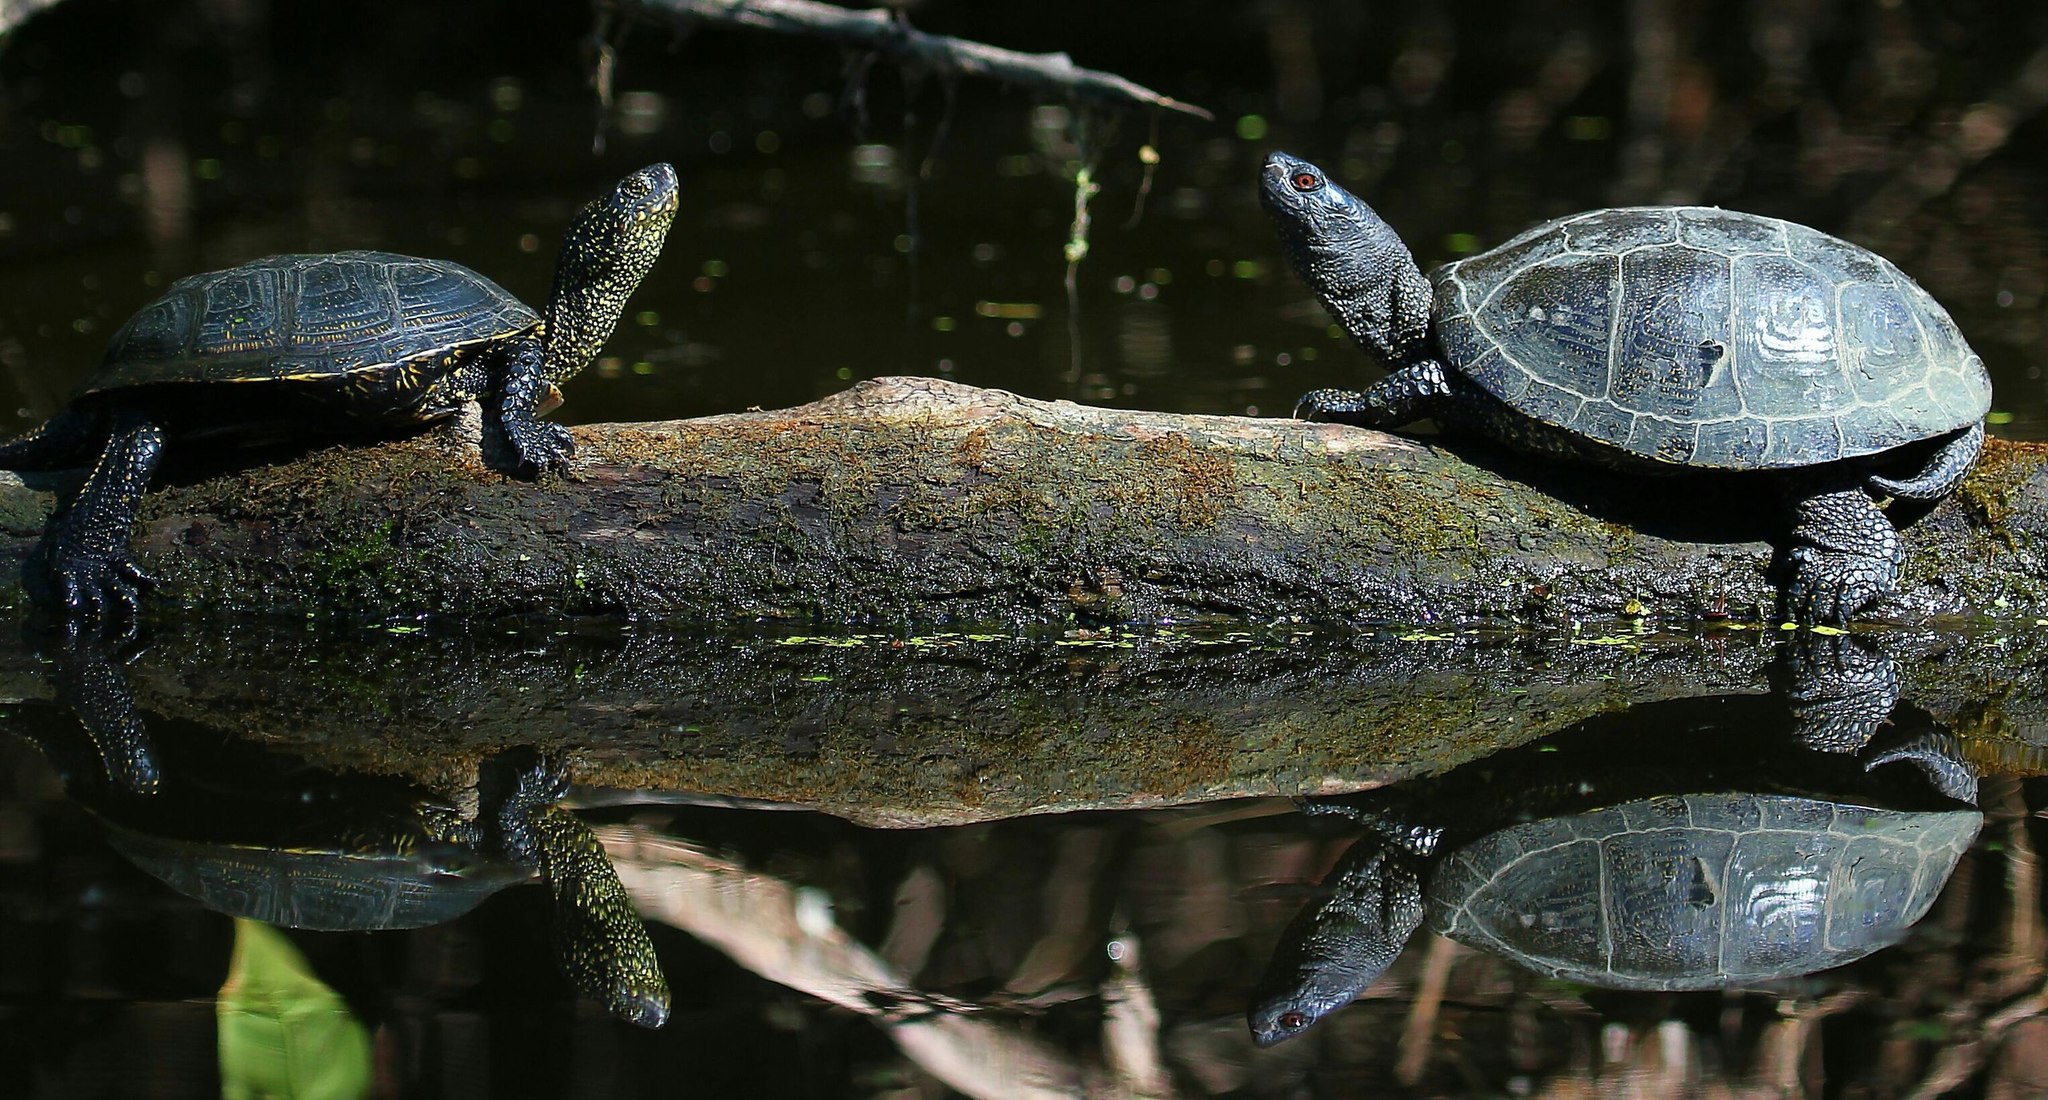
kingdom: Animalia
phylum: Chordata
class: Testudines
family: Emydidae
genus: Emys
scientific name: Emys orbicularis
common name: European pond turtle
